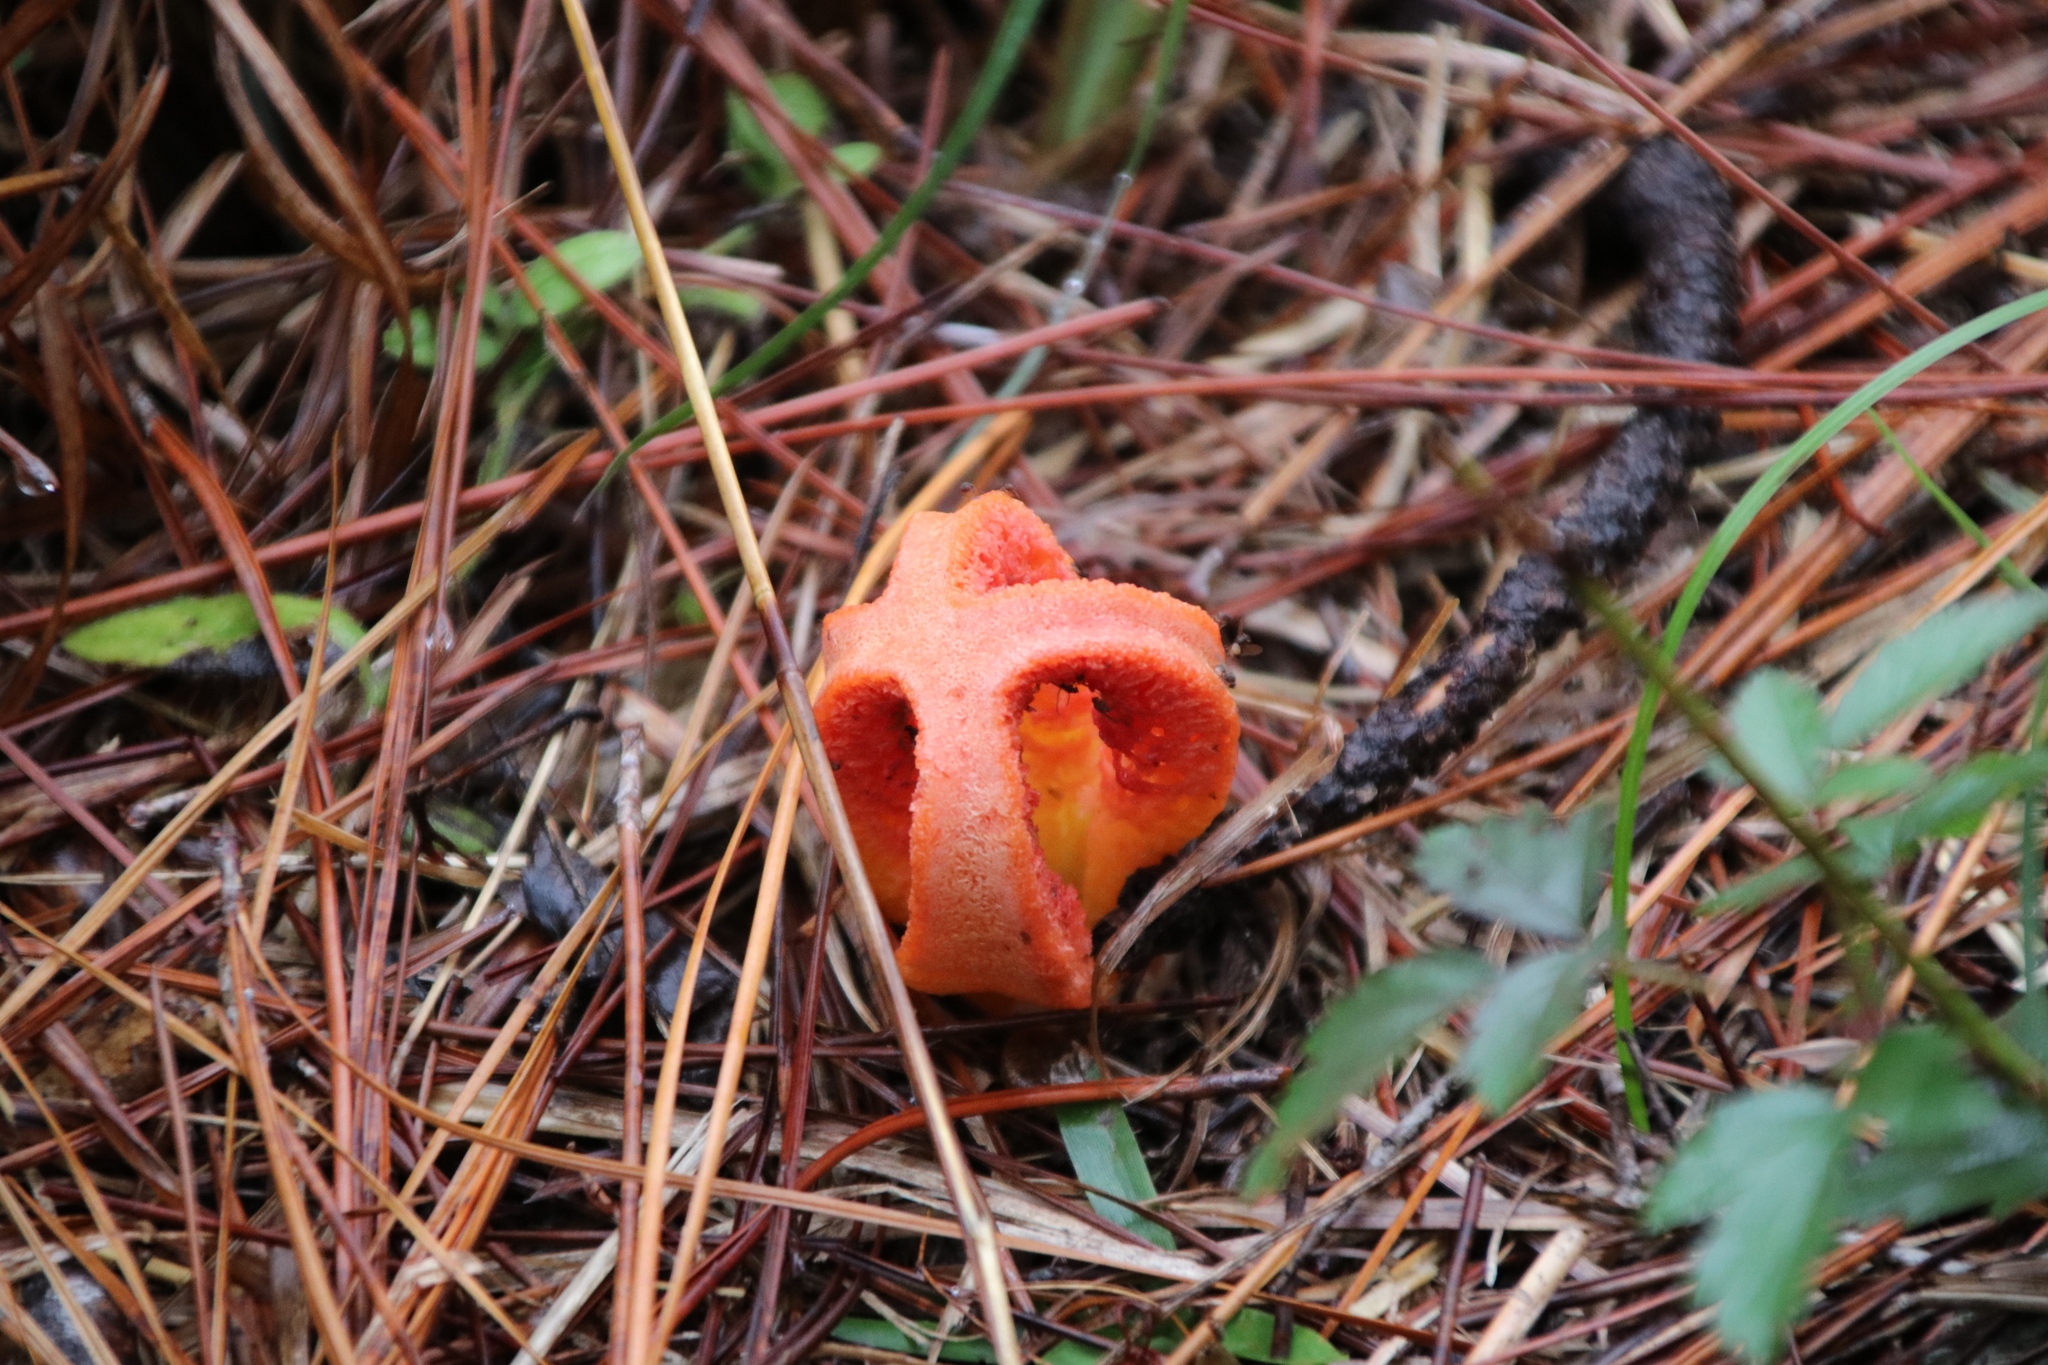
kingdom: Fungi
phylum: Basidiomycota
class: Agaricomycetes
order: Phallales
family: Phallaceae
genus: Clathrus
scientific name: Clathrus columnatus
